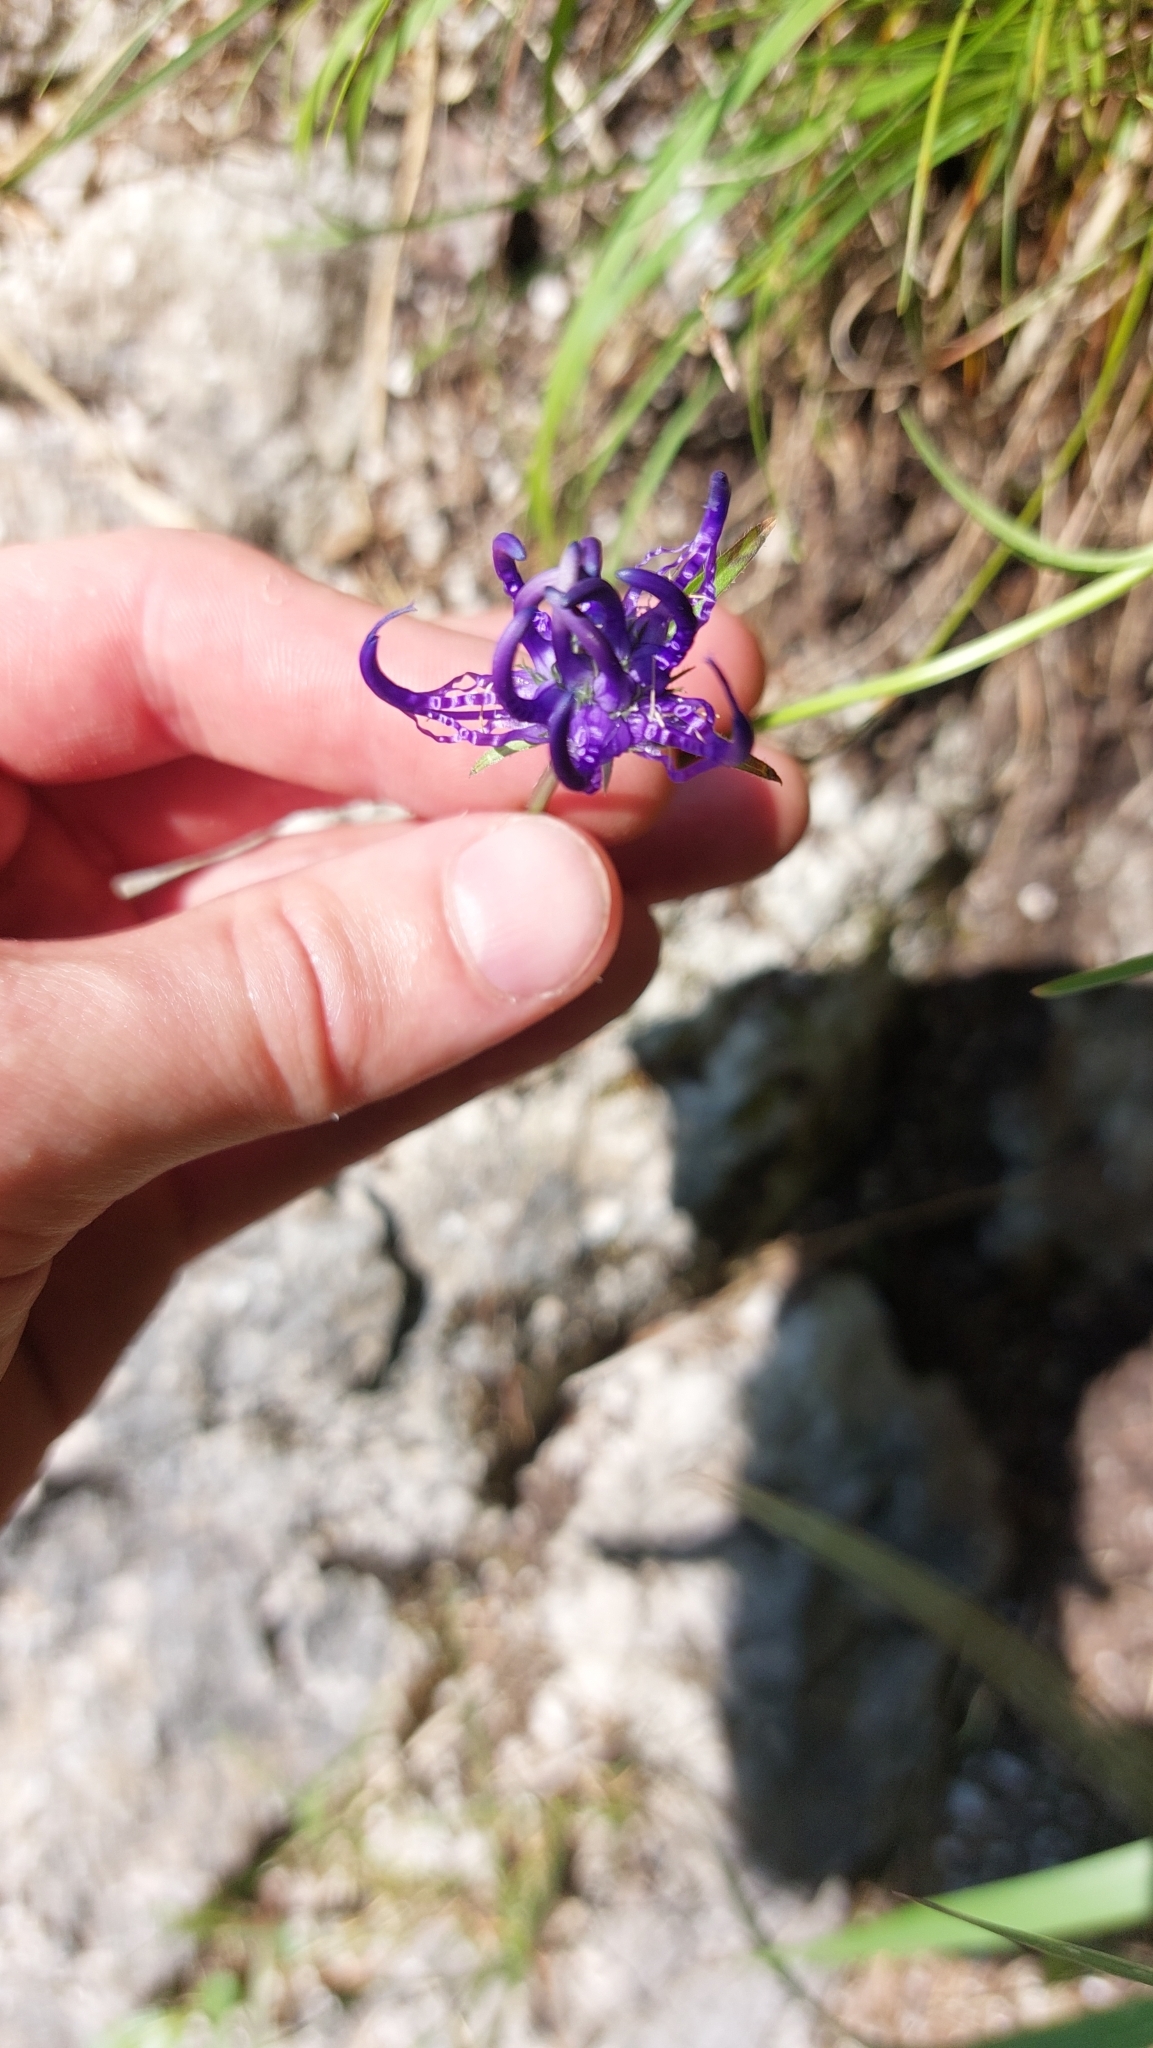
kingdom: Plantae
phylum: Tracheophyta
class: Magnoliopsida
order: Asterales
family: Campanulaceae
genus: Phyteuma
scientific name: Phyteuma orbiculare
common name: Round-headed rampion
